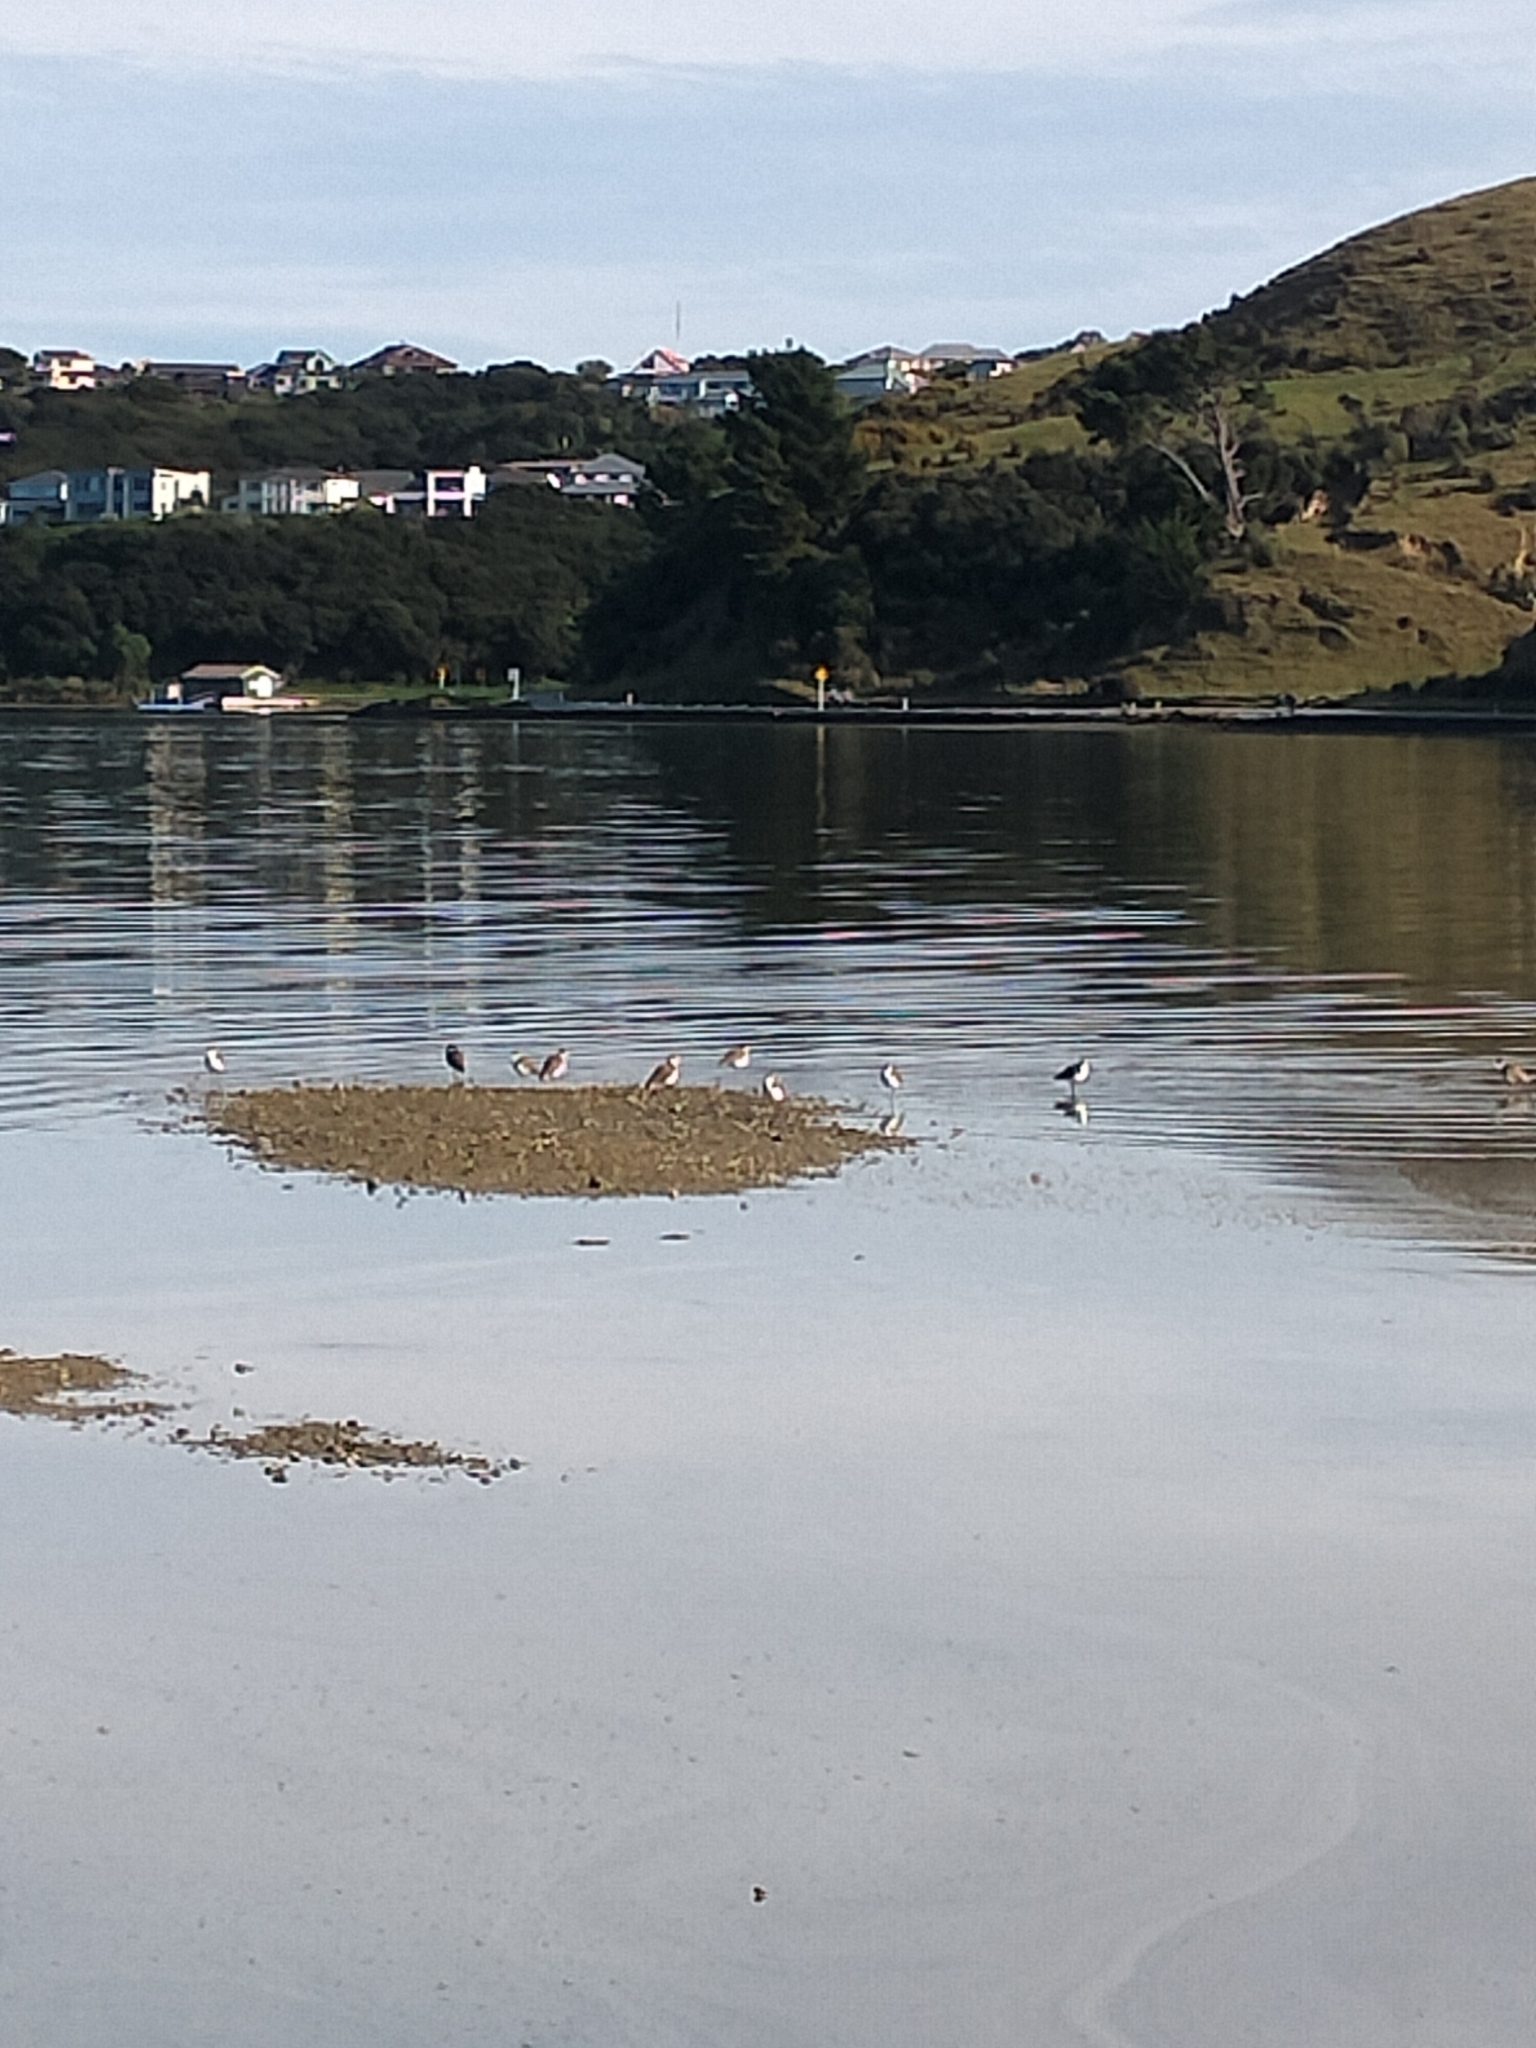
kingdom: Animalia
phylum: Chordata
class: Aves
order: Charadriiformes
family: Charadriidae
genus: Vanellus
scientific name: Vanellus miles
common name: Masked lapwing
